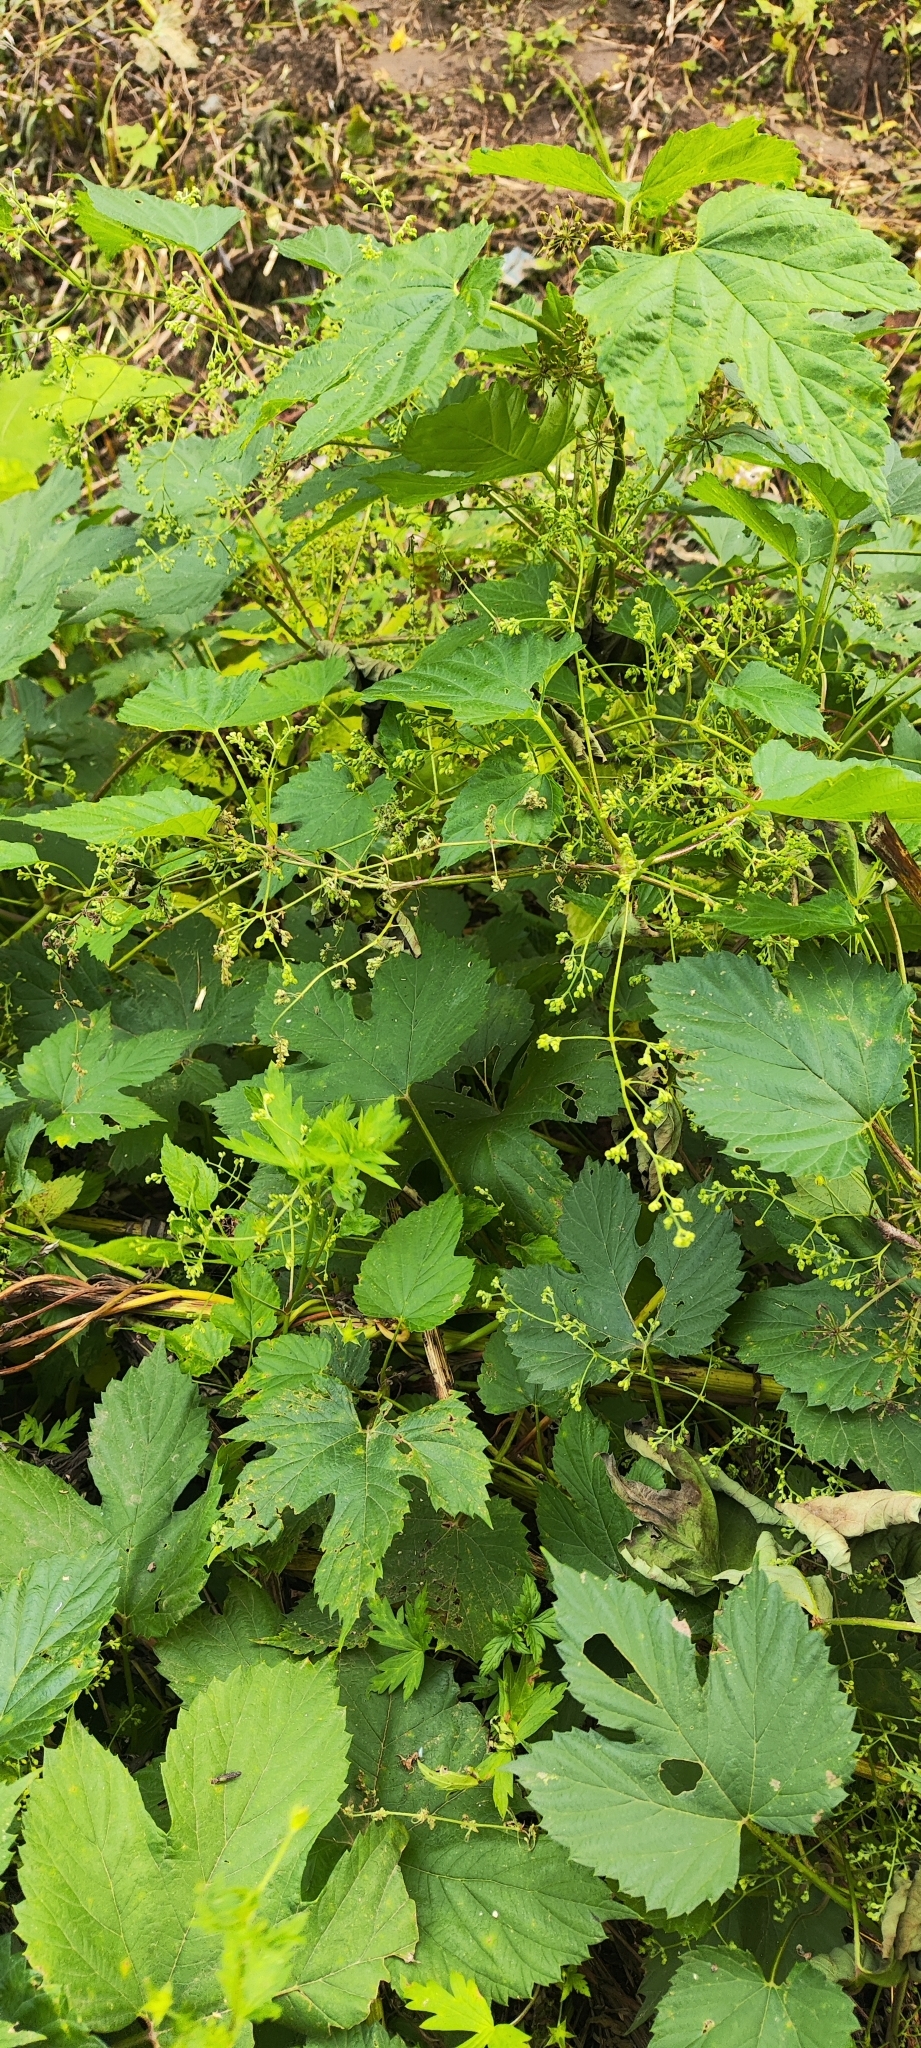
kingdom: Plantae
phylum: Tracheophyta
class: Magnoliopsida
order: Rosales
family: Cannabaceae
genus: Humulus
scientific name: Humulus lupulus
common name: Hop
